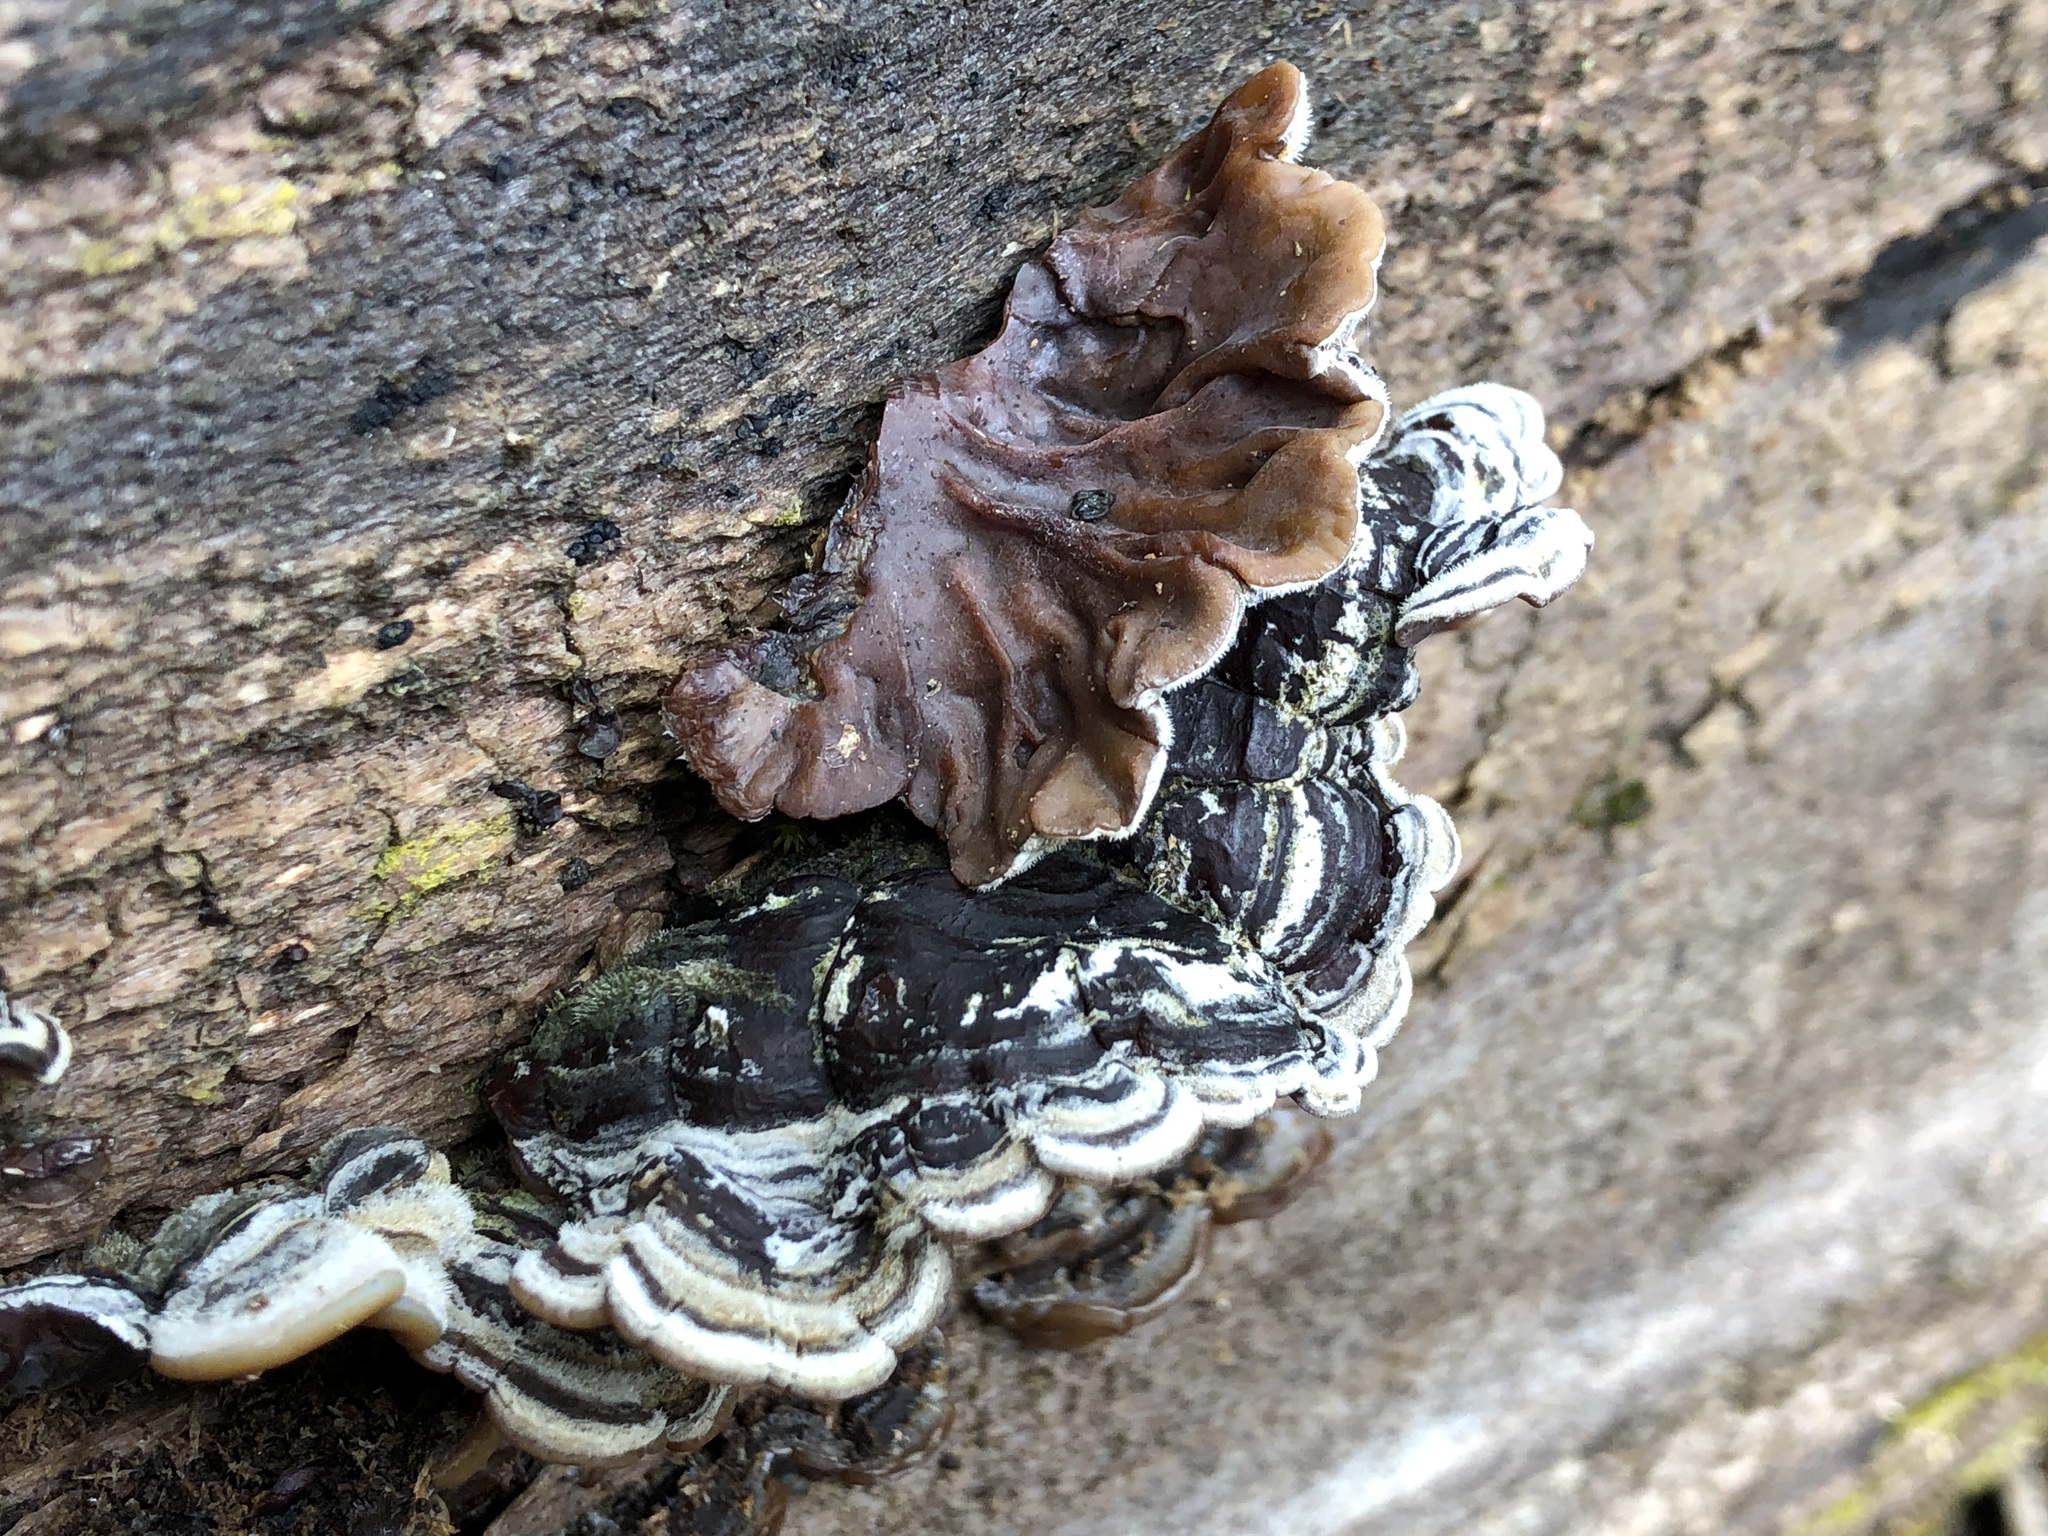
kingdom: Fungi
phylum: Basidiomycota
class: Agaricomycetes
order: Auriculariales
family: Auriculariaceae
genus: Auricularia
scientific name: Auricularia mesenterica
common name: Tripe fungus
